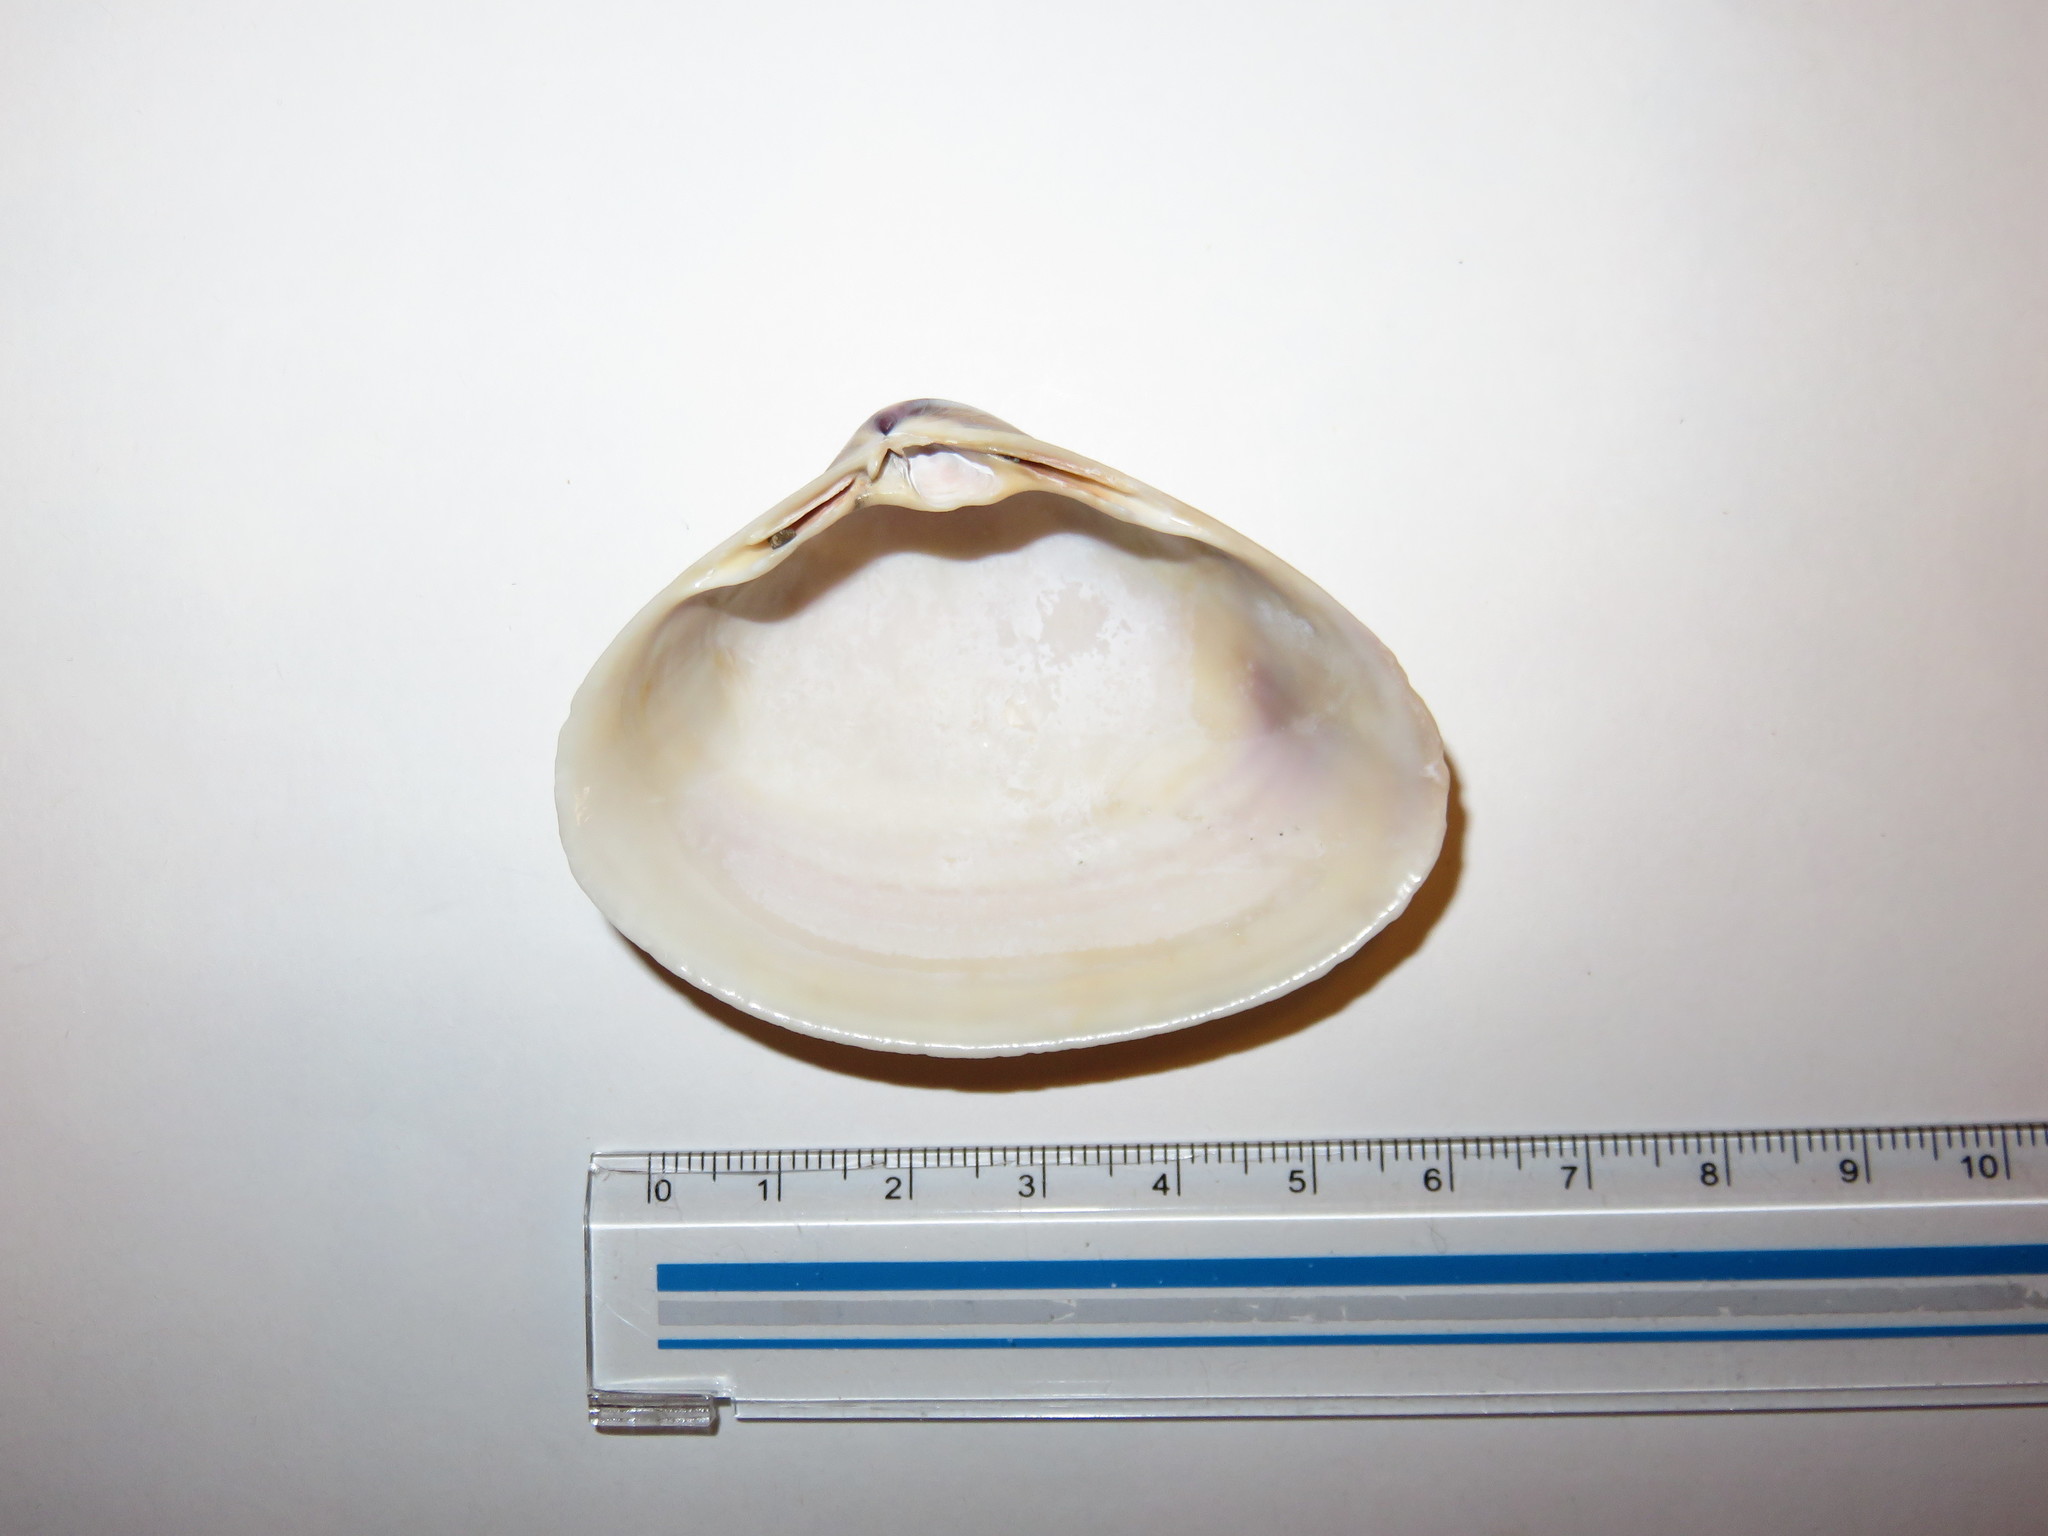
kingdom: Animalia
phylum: Mollusca
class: Bivalvia
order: Venerida
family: Mactridae
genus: Mactra
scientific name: Mactra chinensis
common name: Chinese surf clam
